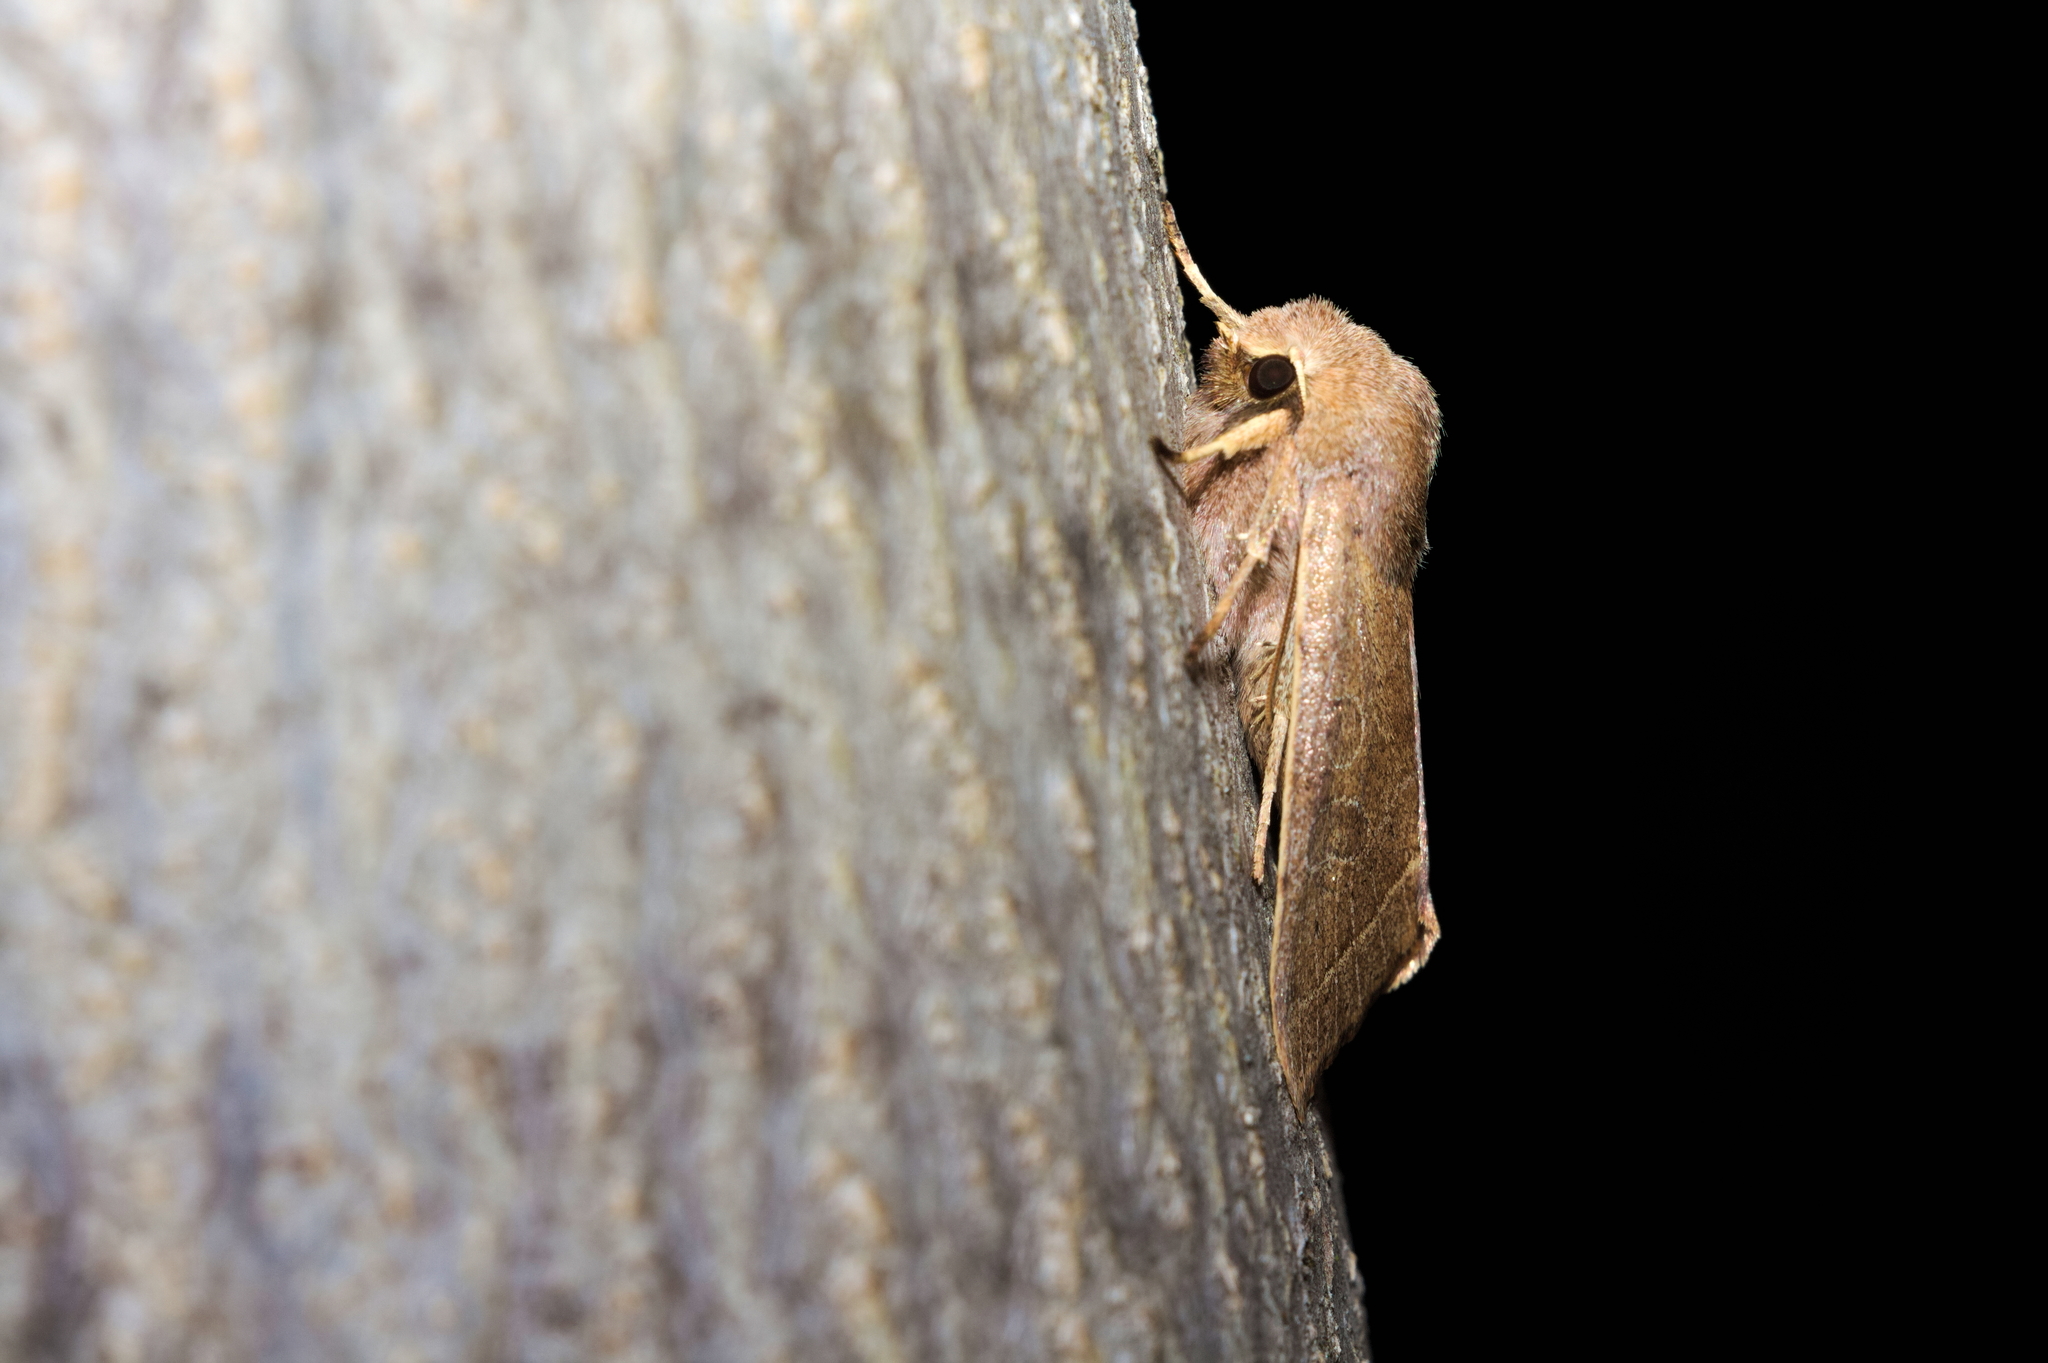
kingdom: Animalia
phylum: Arthropoda
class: Insecta
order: Lepidoptera
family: Noctuidae
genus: Orthosia
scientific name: Orthosia cerasi
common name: Common quaker
